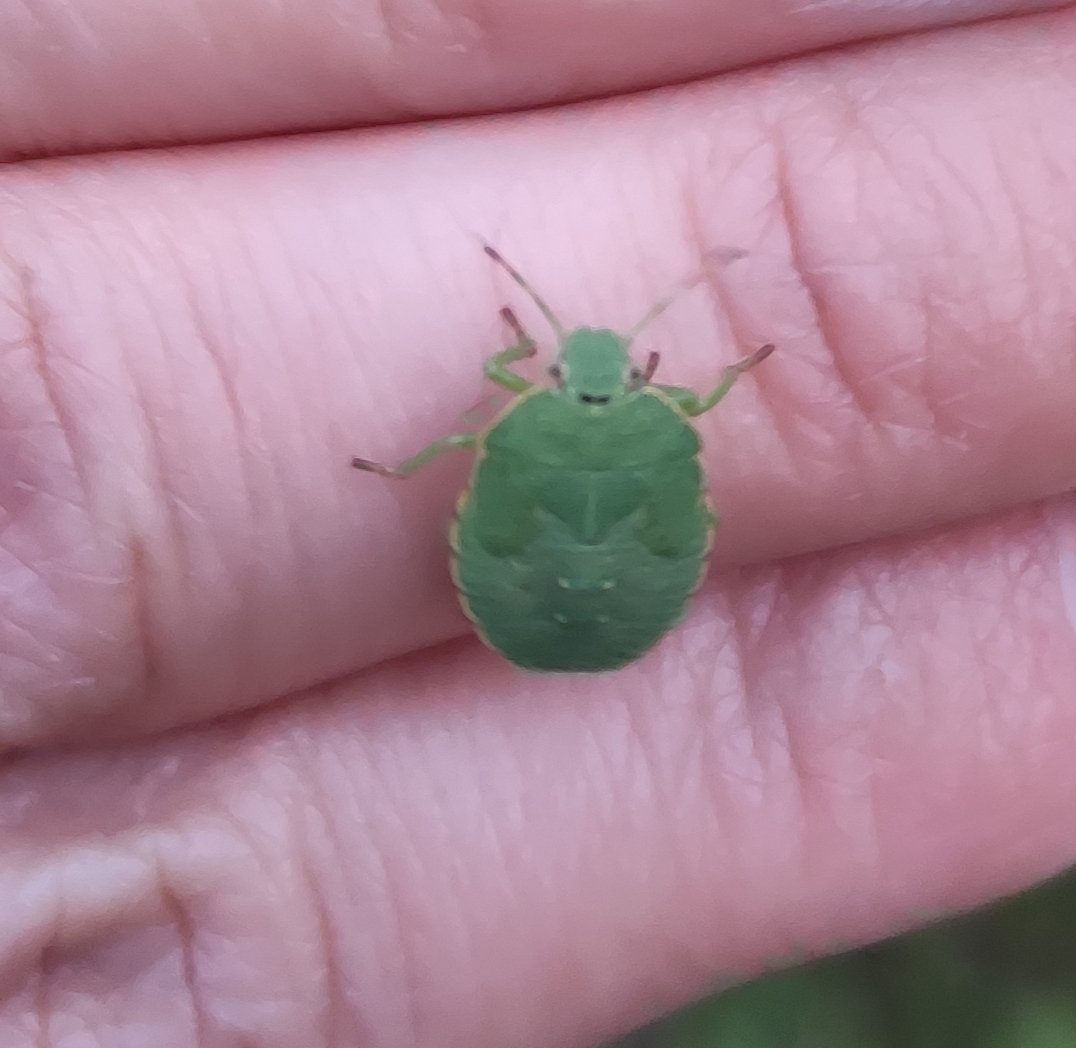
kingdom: Animalia
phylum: Arthropoda
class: Insecta
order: Hemiptera
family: Pentatomidae
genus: Palomena
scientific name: Palomena prasina
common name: Green shieldbug
